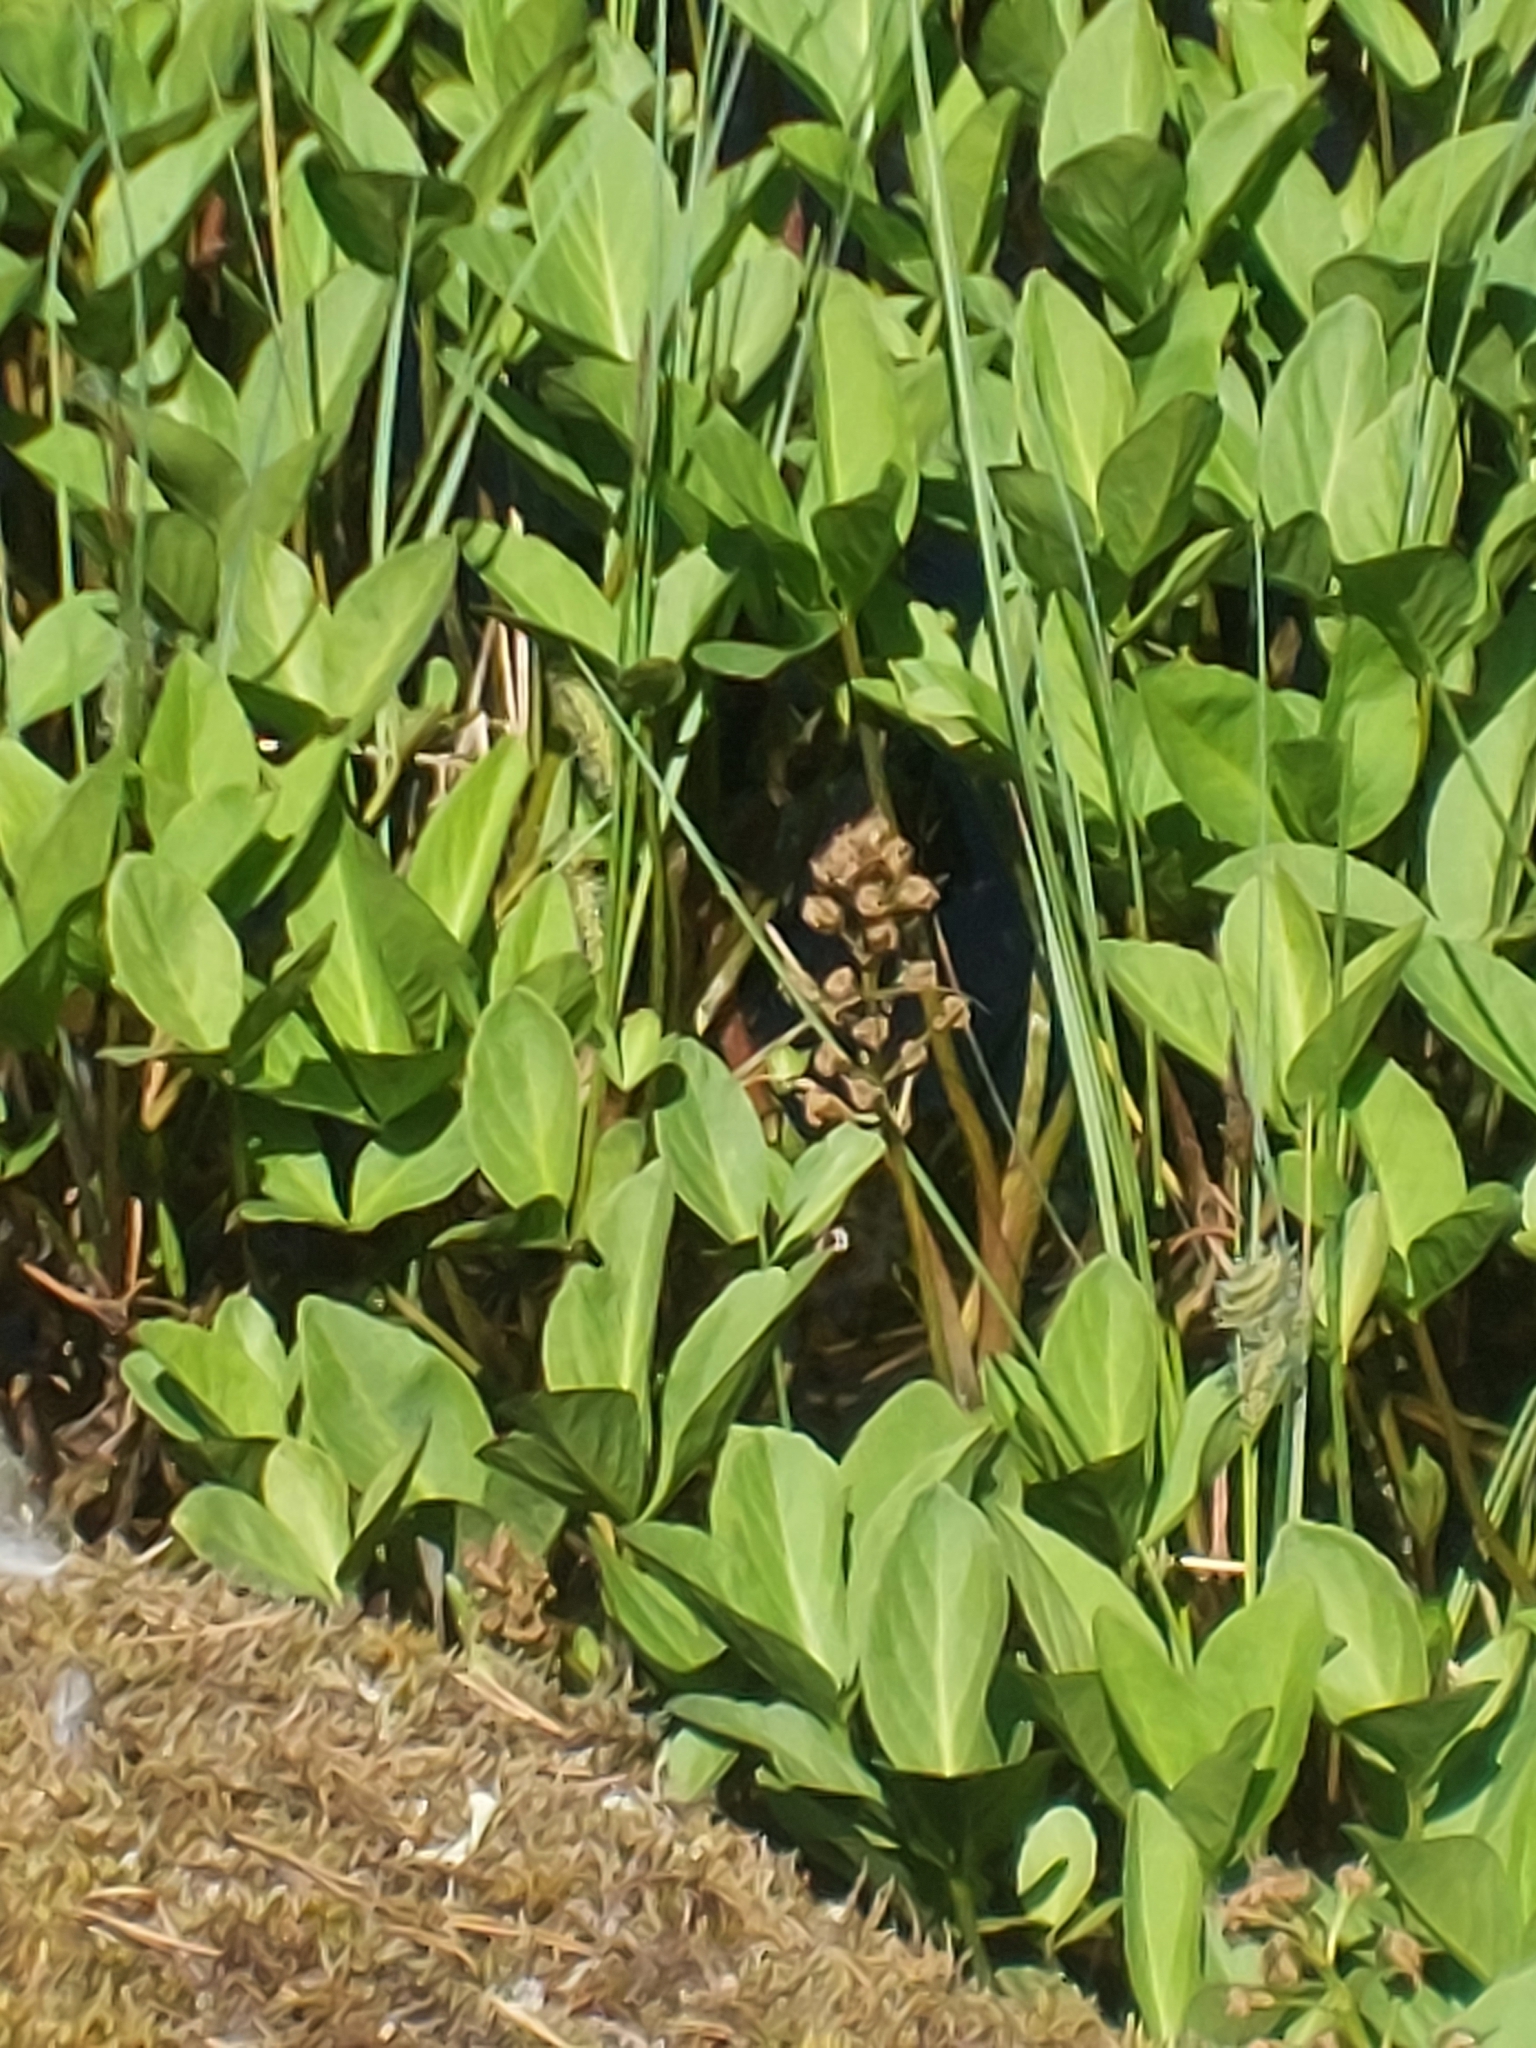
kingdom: Plantae
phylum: Tracheophyta
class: Magnoliopsida
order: Asterales
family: Menyanthaceae
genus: Menyanthes
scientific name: Menyanthes trifoliata
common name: Bogbean
